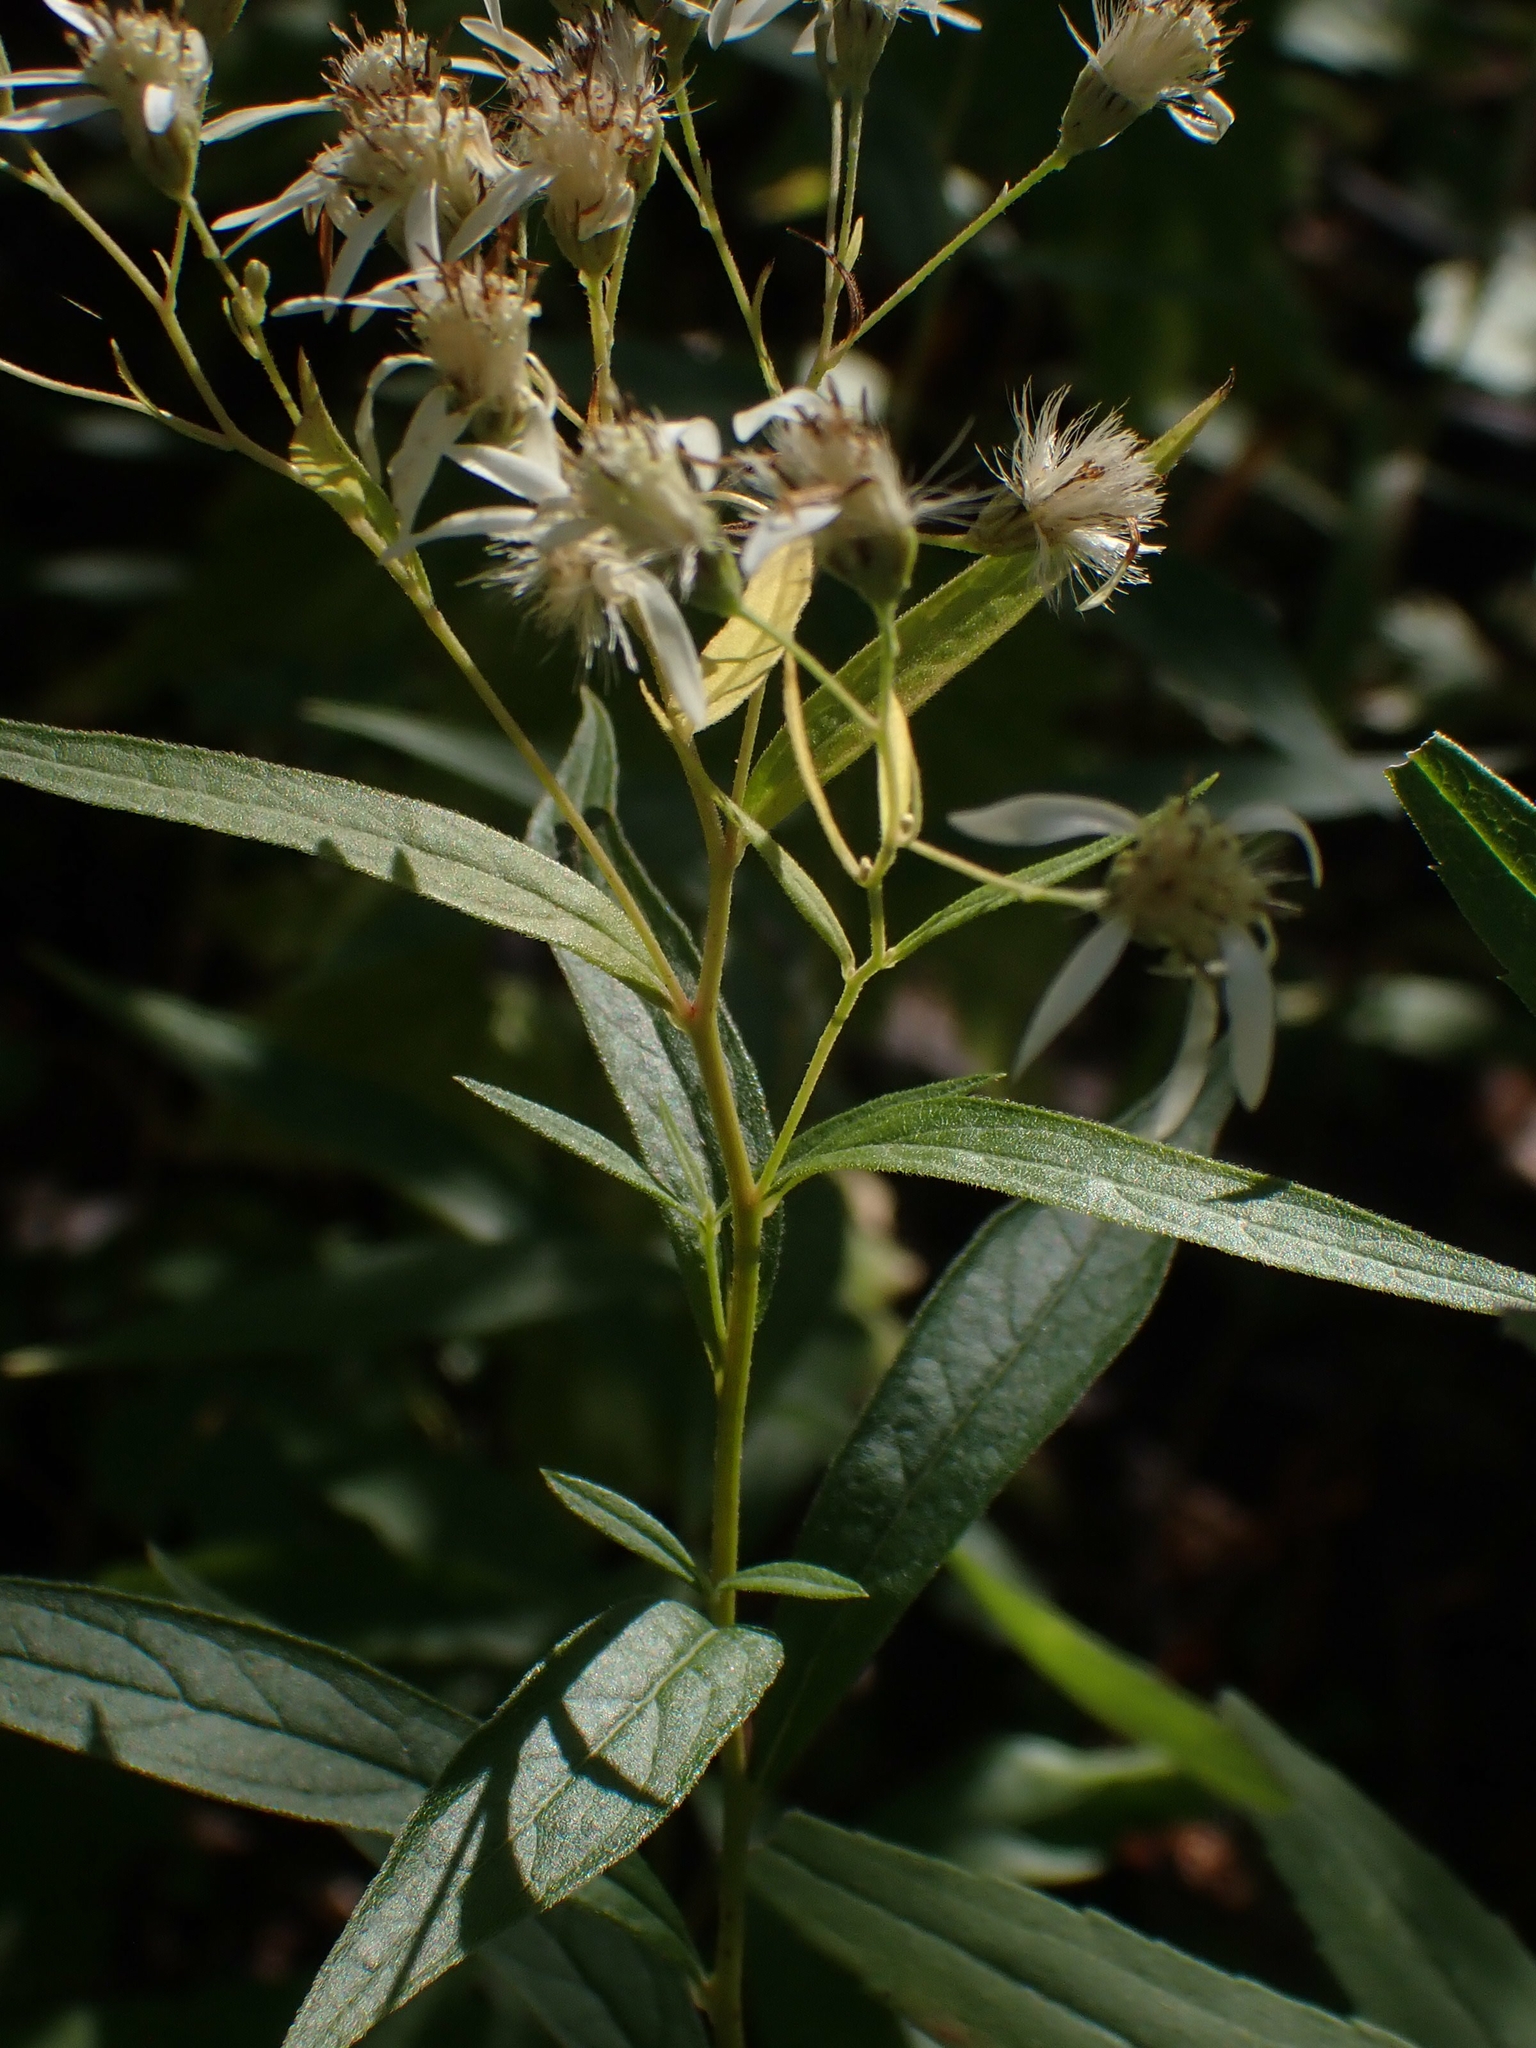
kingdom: Plantae
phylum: Tracheophyta
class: Magnoliopsida
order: Asterales
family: Asteraceae
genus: Doellingeria
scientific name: Doellingeria umbellata
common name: Flat-top white aster
